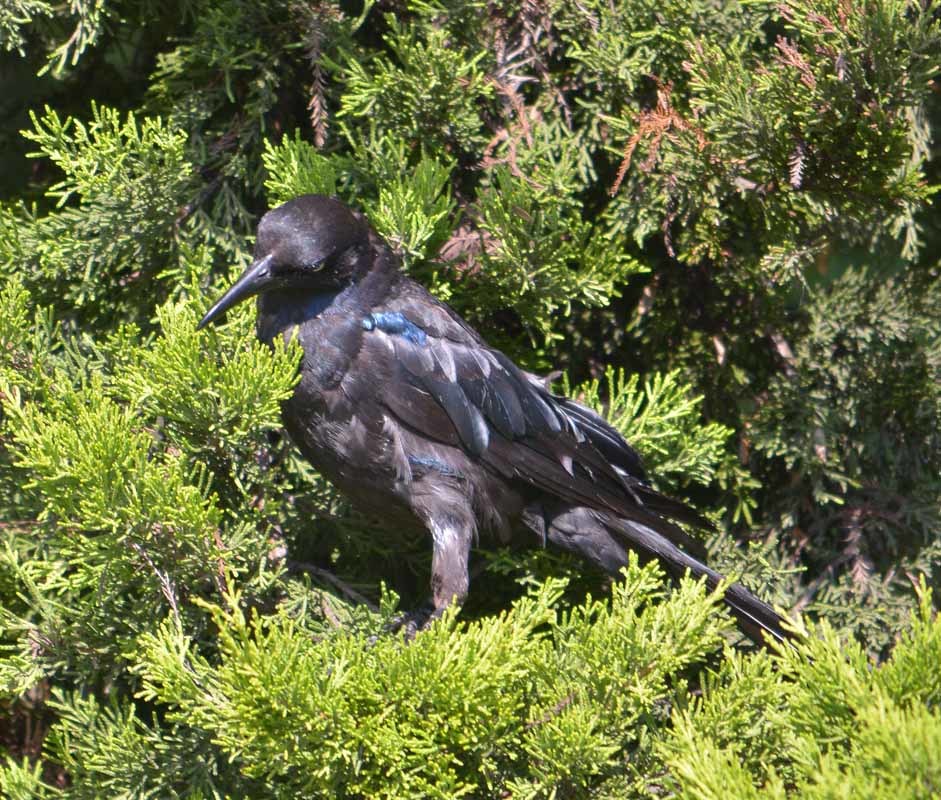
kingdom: Animalia
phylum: Chordata
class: Aves
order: Passeriformes
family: Icteridae
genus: Quiscalus
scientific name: Quiscalus mexicanus
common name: Great-tailed grackle
